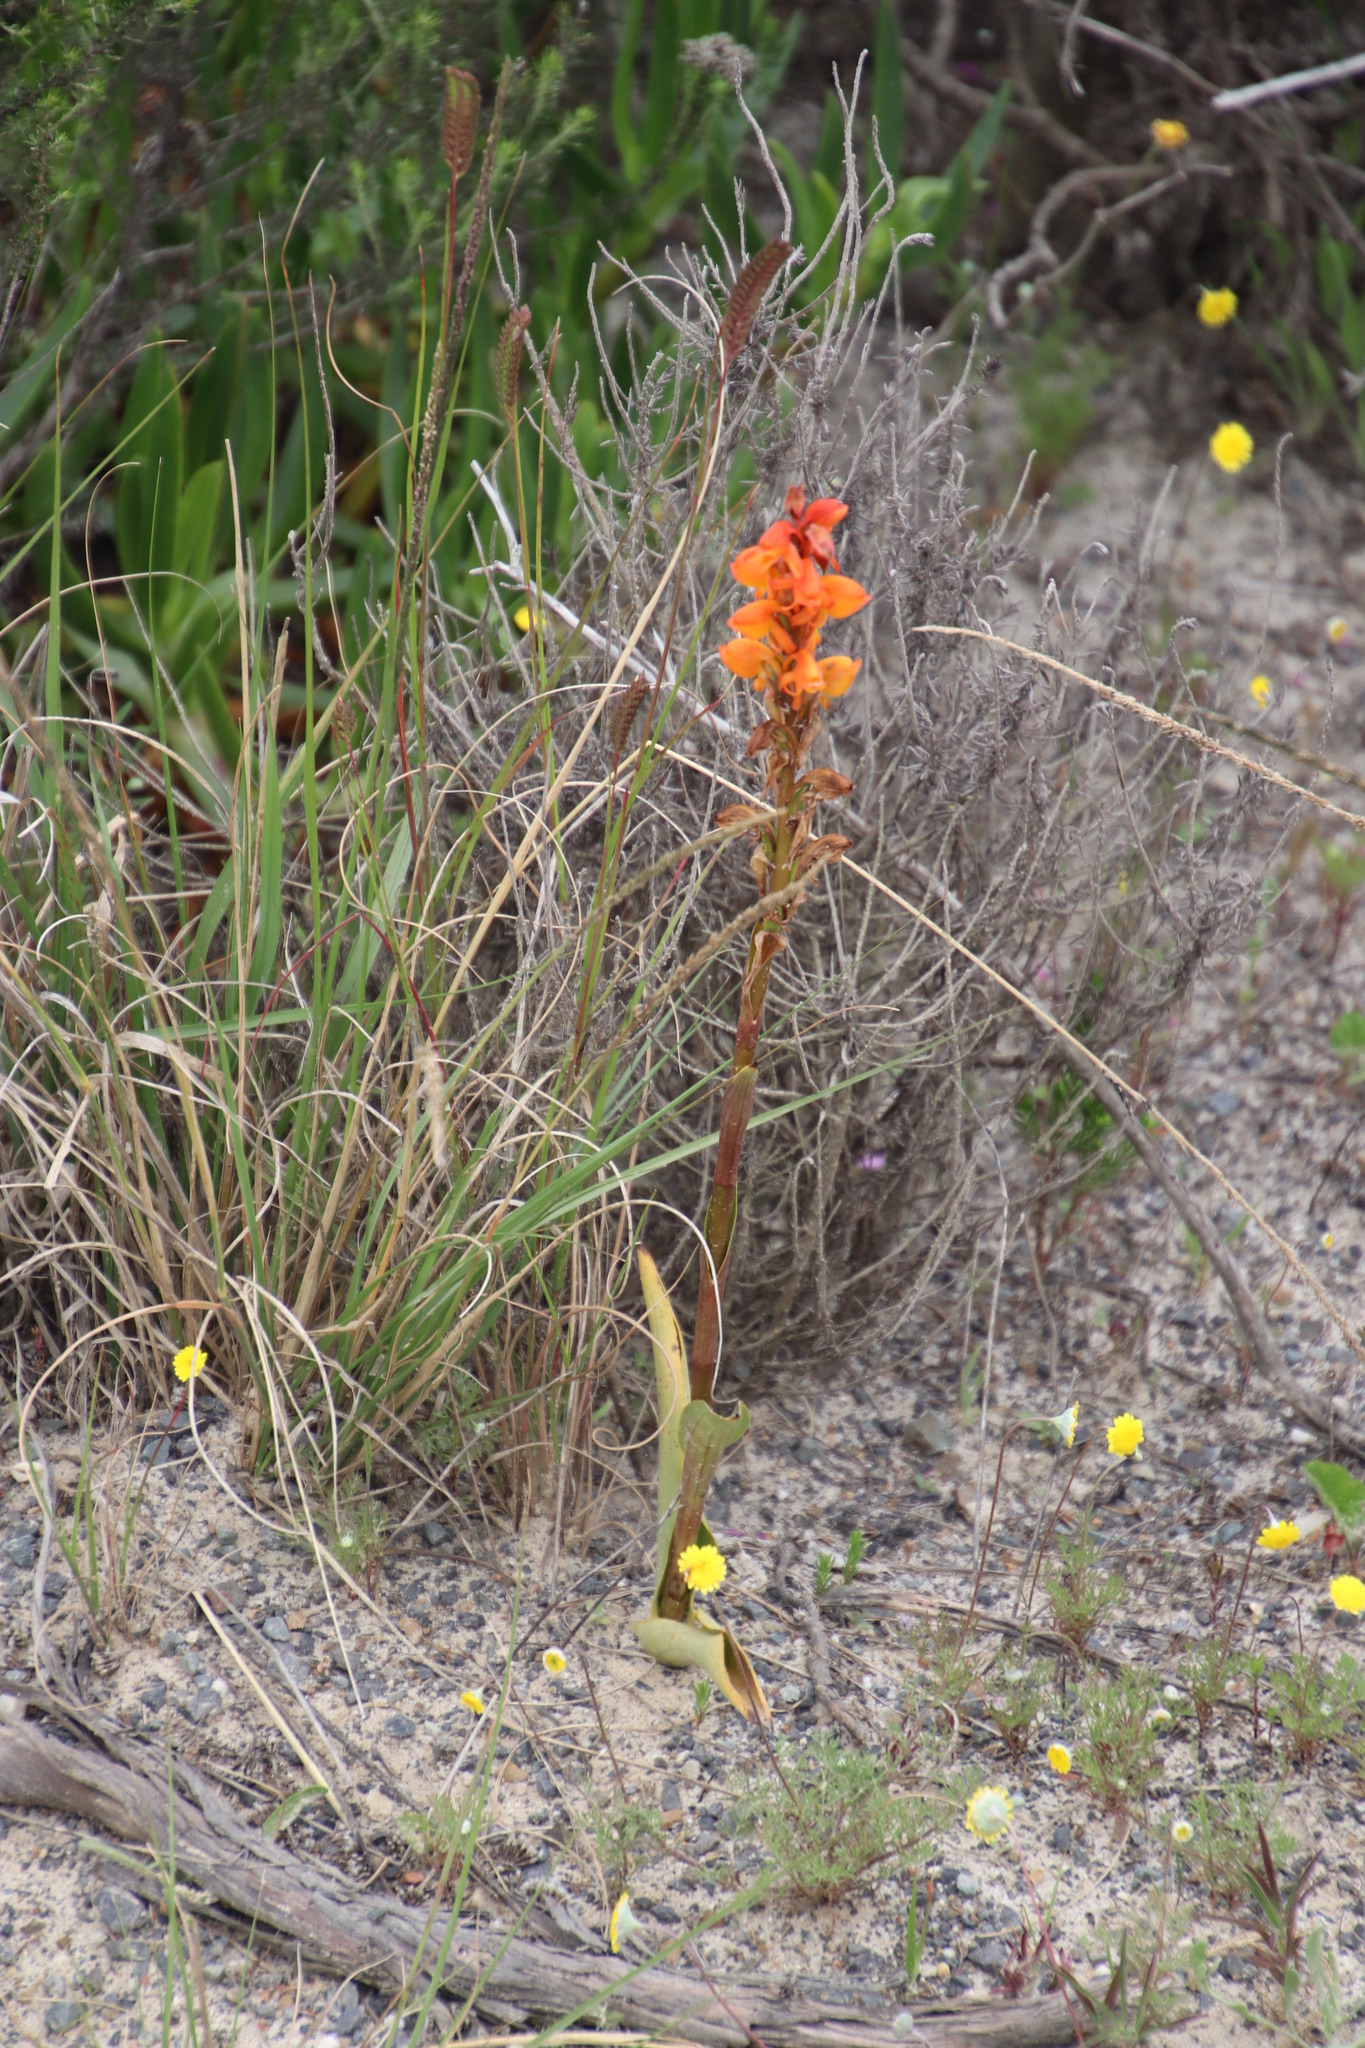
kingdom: Plantae
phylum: Tracheophyta
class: Liliopsida
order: Asparagales
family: Orchidaceae
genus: Satyrium
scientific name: Satyrium coriifolium
